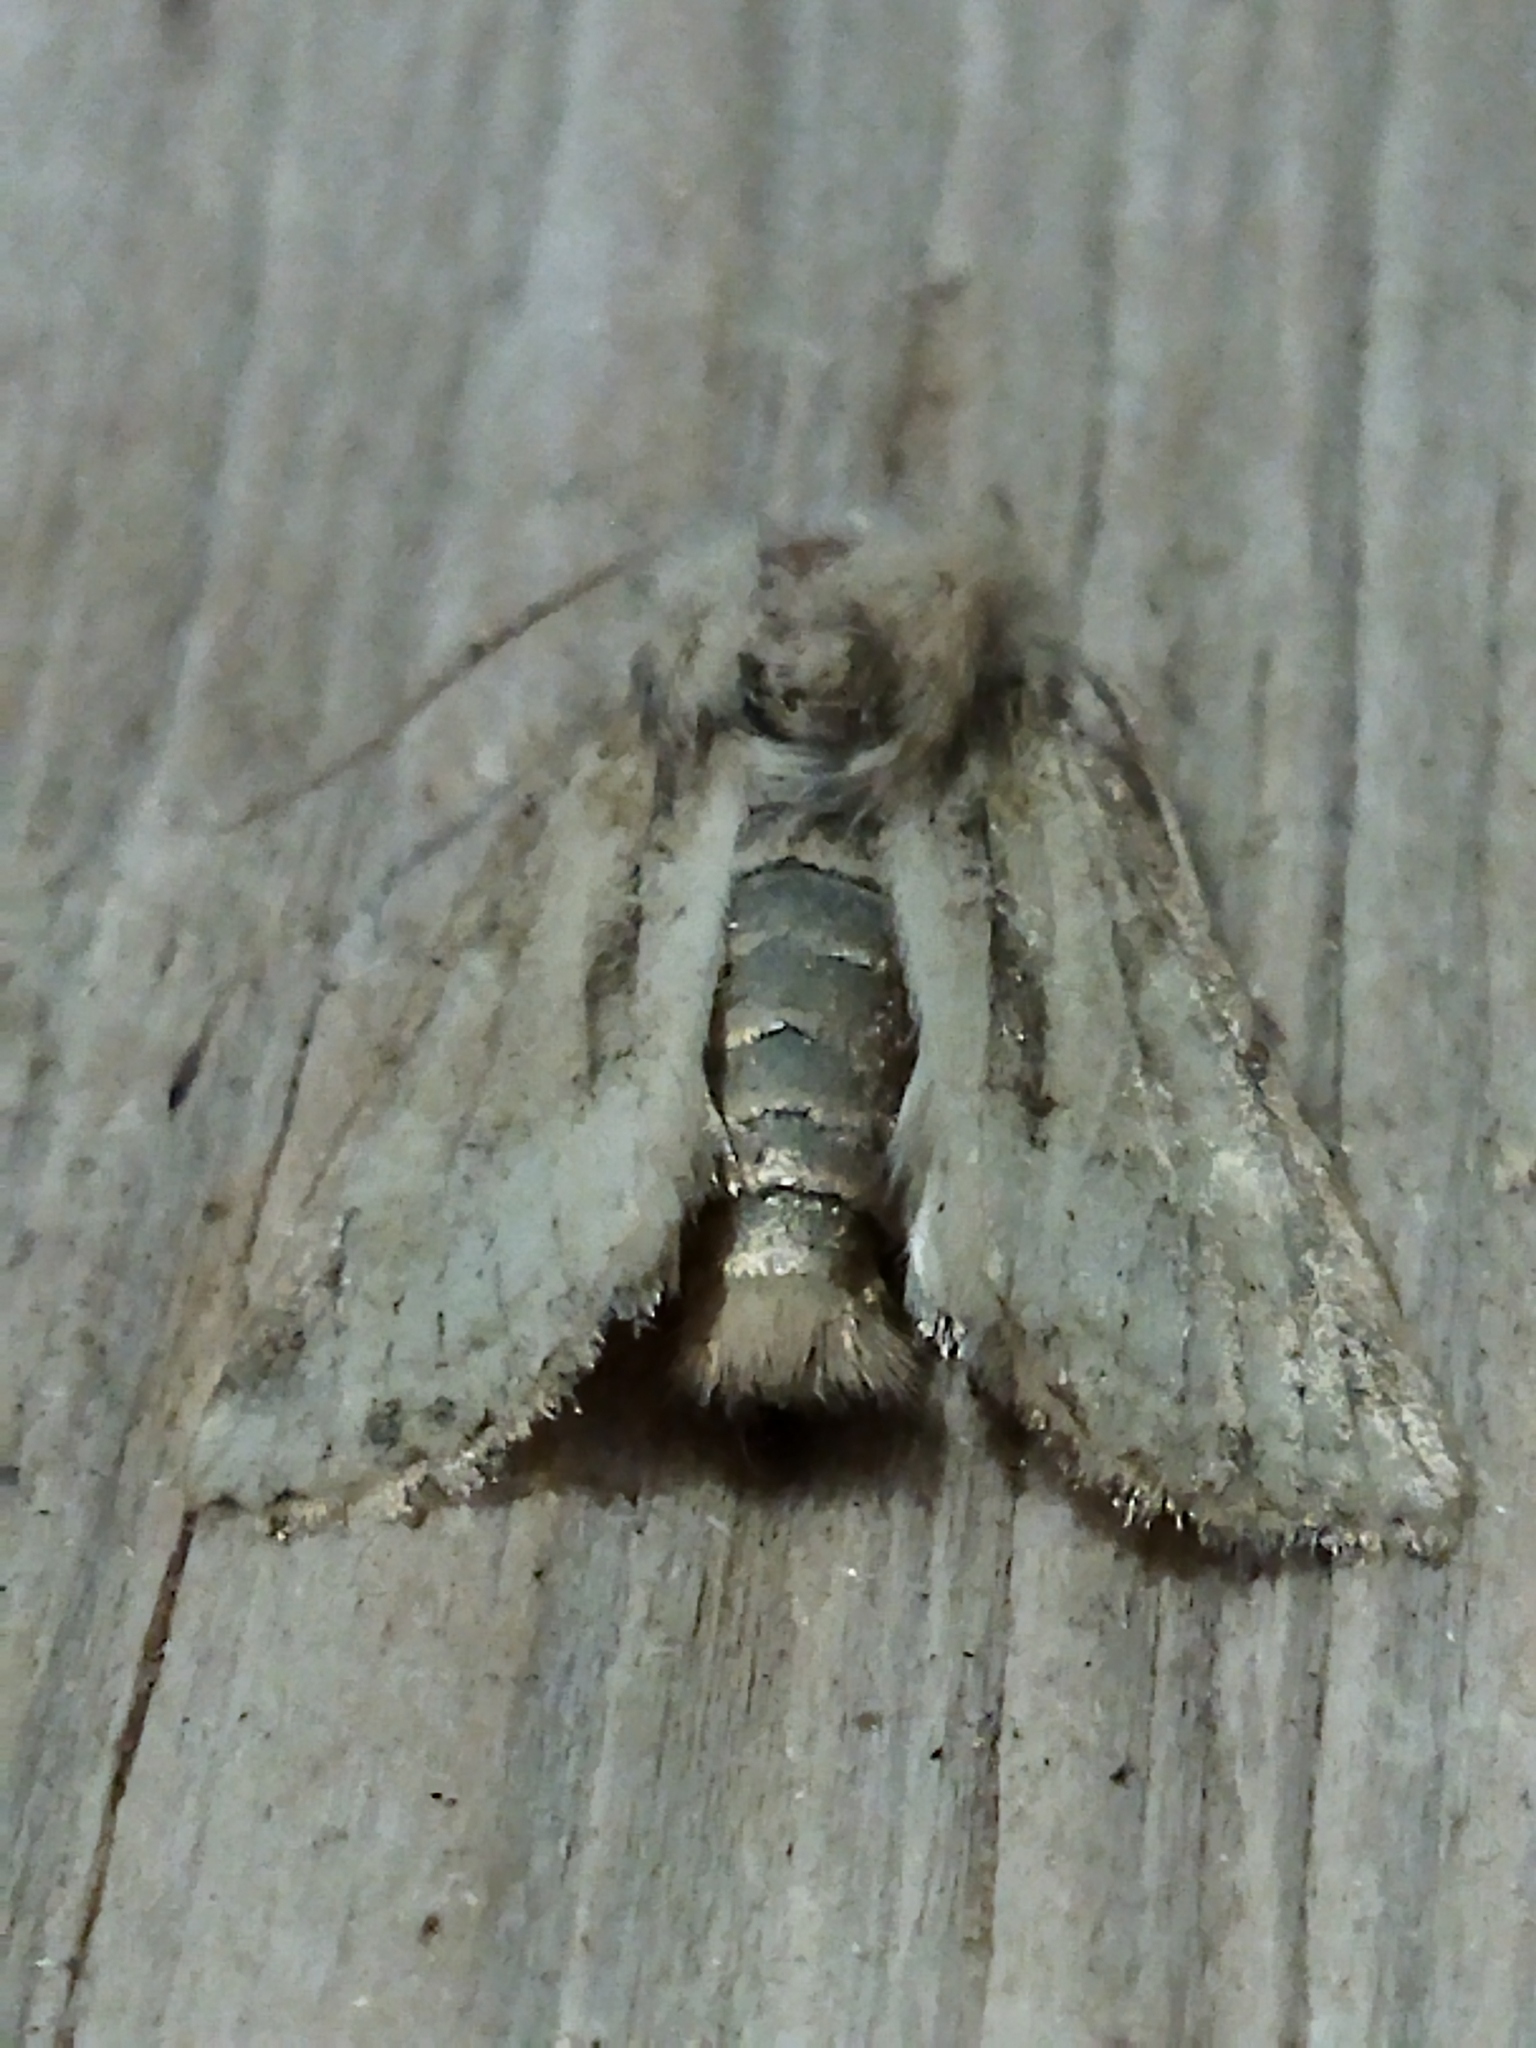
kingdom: Animalia
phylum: Arthropoda
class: Insecta
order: Lepidoptera
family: Noctuidae
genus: Luperina
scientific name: Luperina dumerilii
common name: Dumeril's rustic
